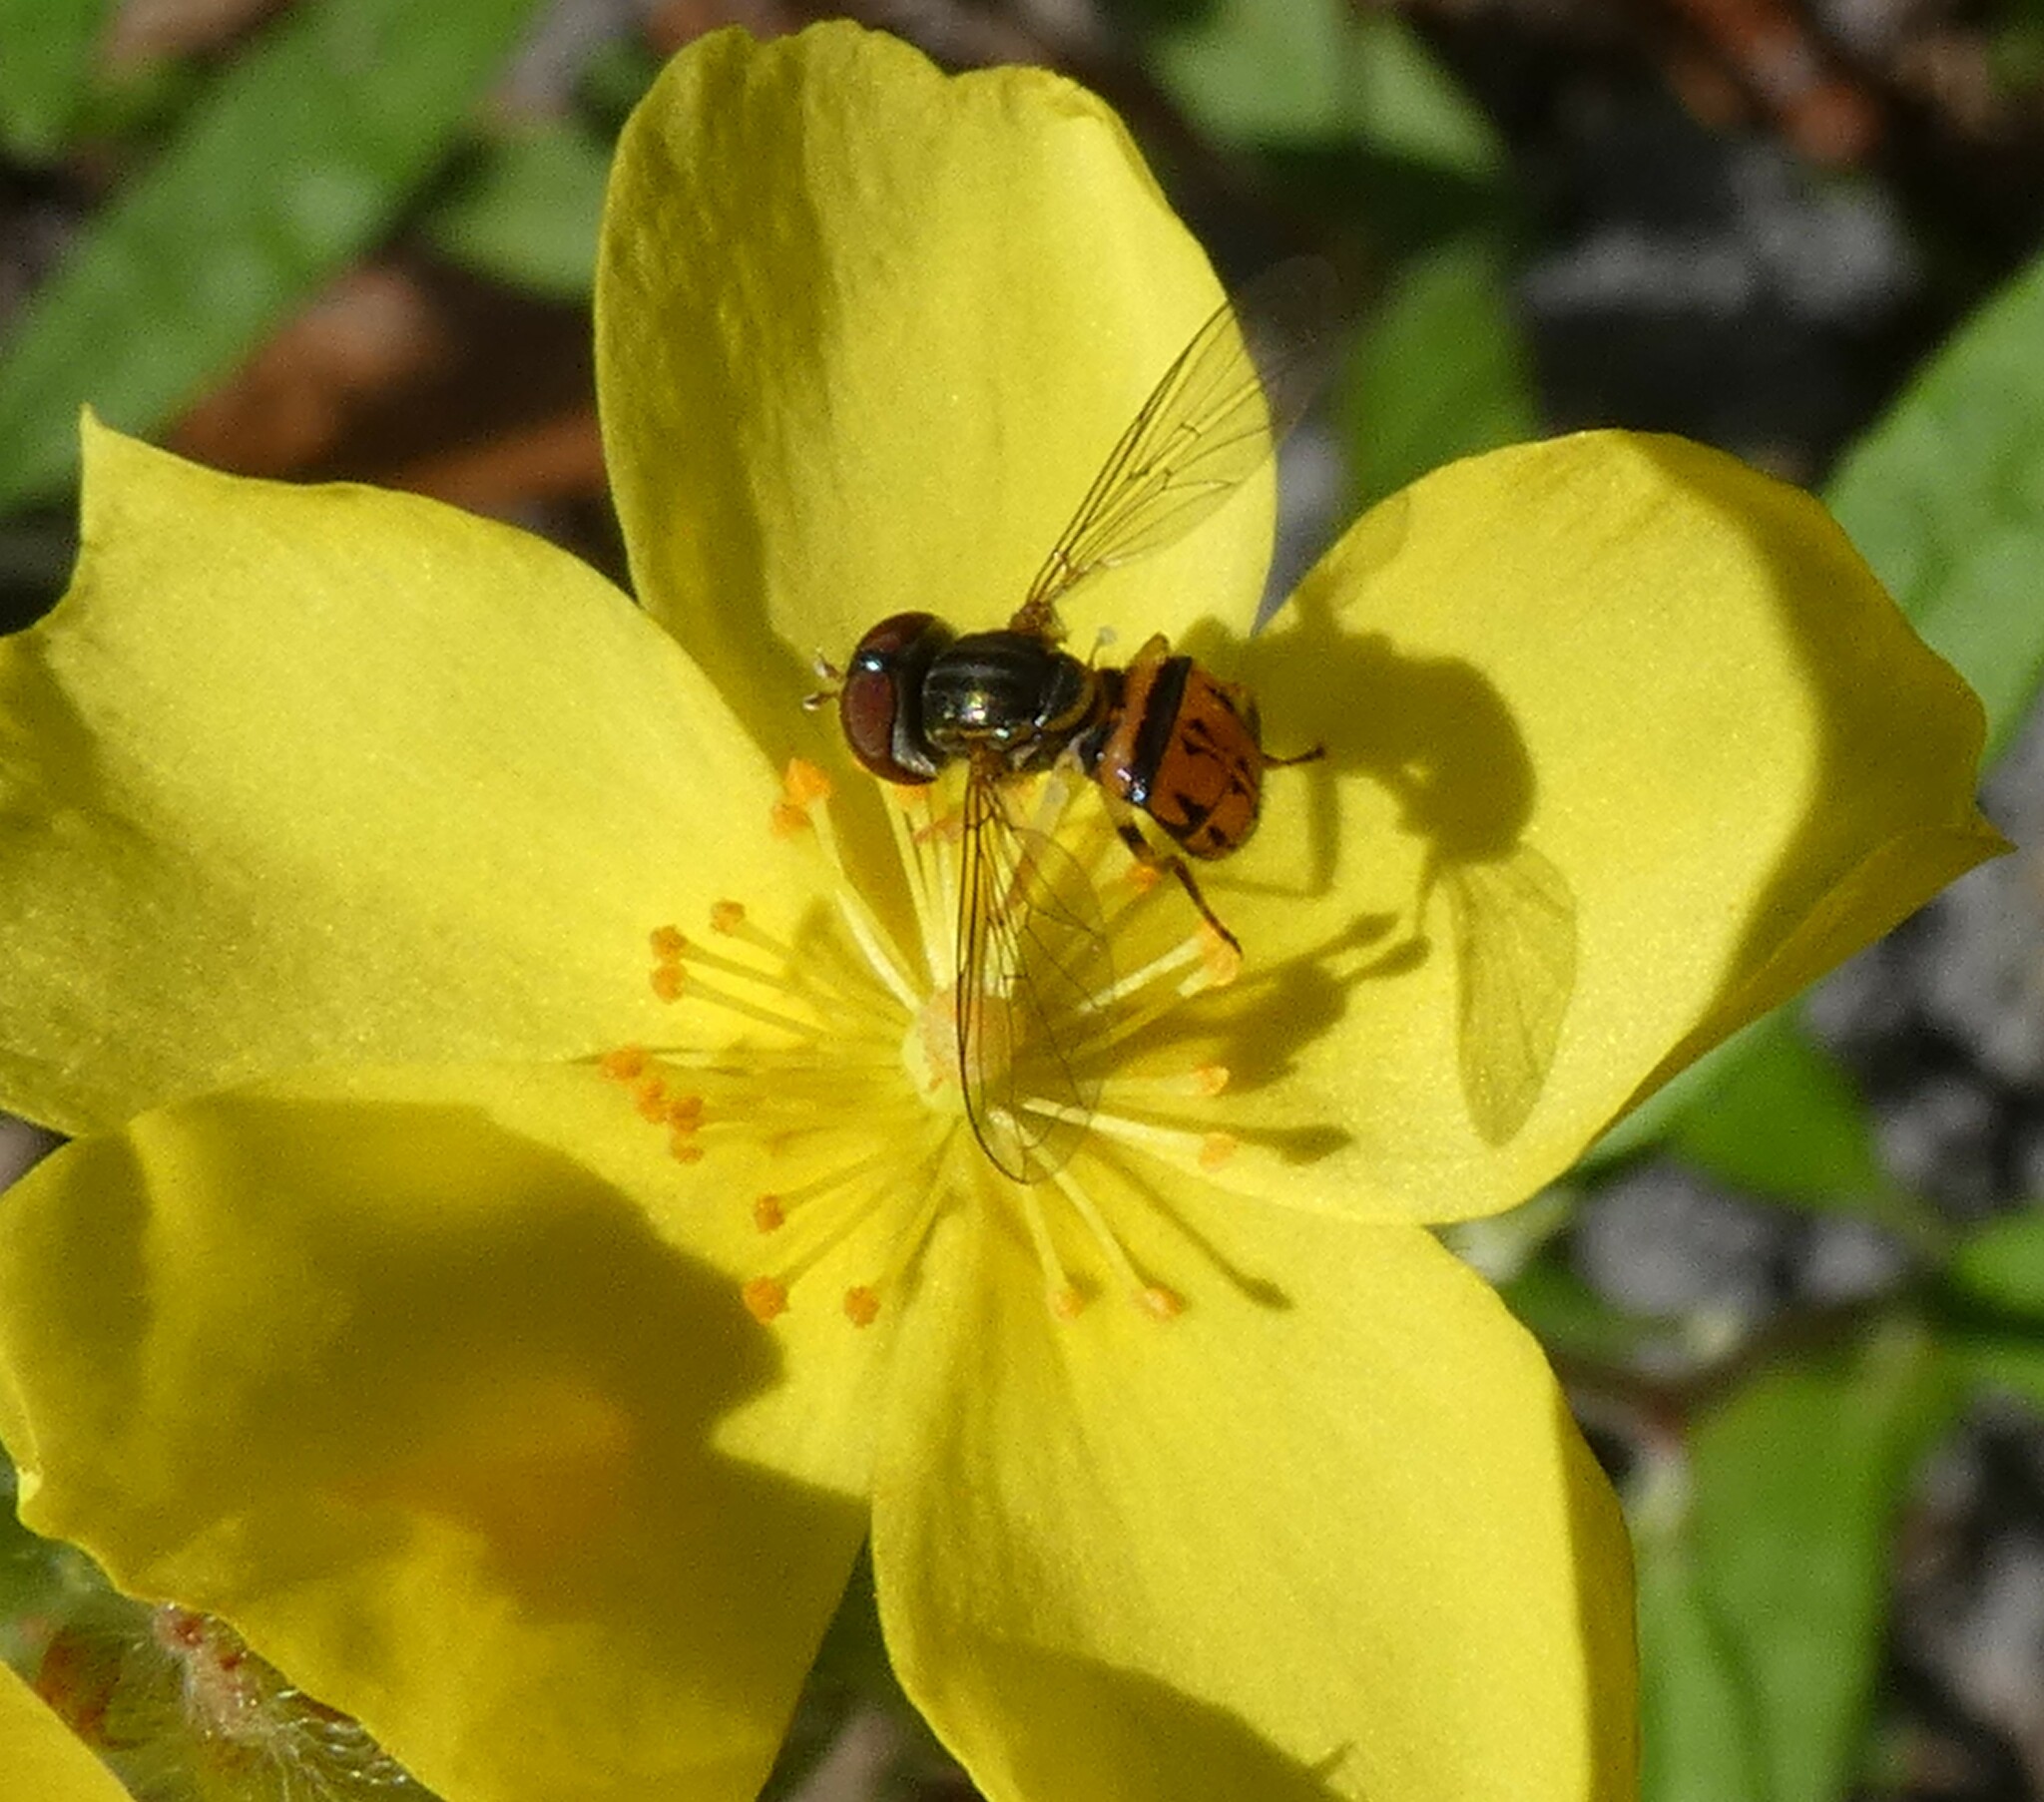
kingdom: Plantae
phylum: Tracheophyta
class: Magnoliopsida
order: Malvales
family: Cistaceae
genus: Crocanthemum
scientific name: Crocanthemum corymbosum
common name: Pinebarren sun-rose
